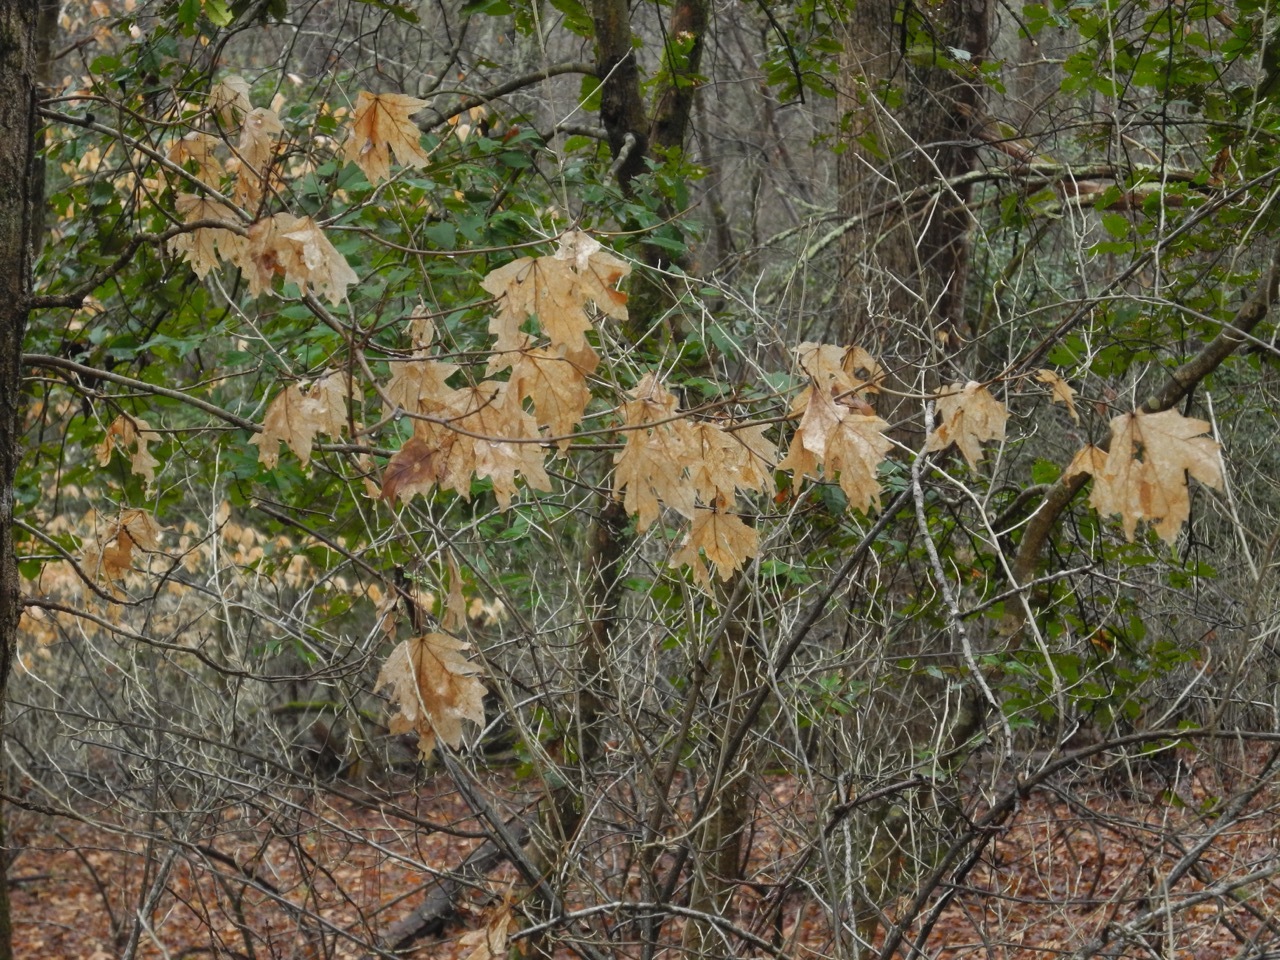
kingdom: Plantae
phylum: Tracheophyta
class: Magnoliopsida
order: Sapindales
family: Sapindaceae
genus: Acer
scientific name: Acer floridanum
